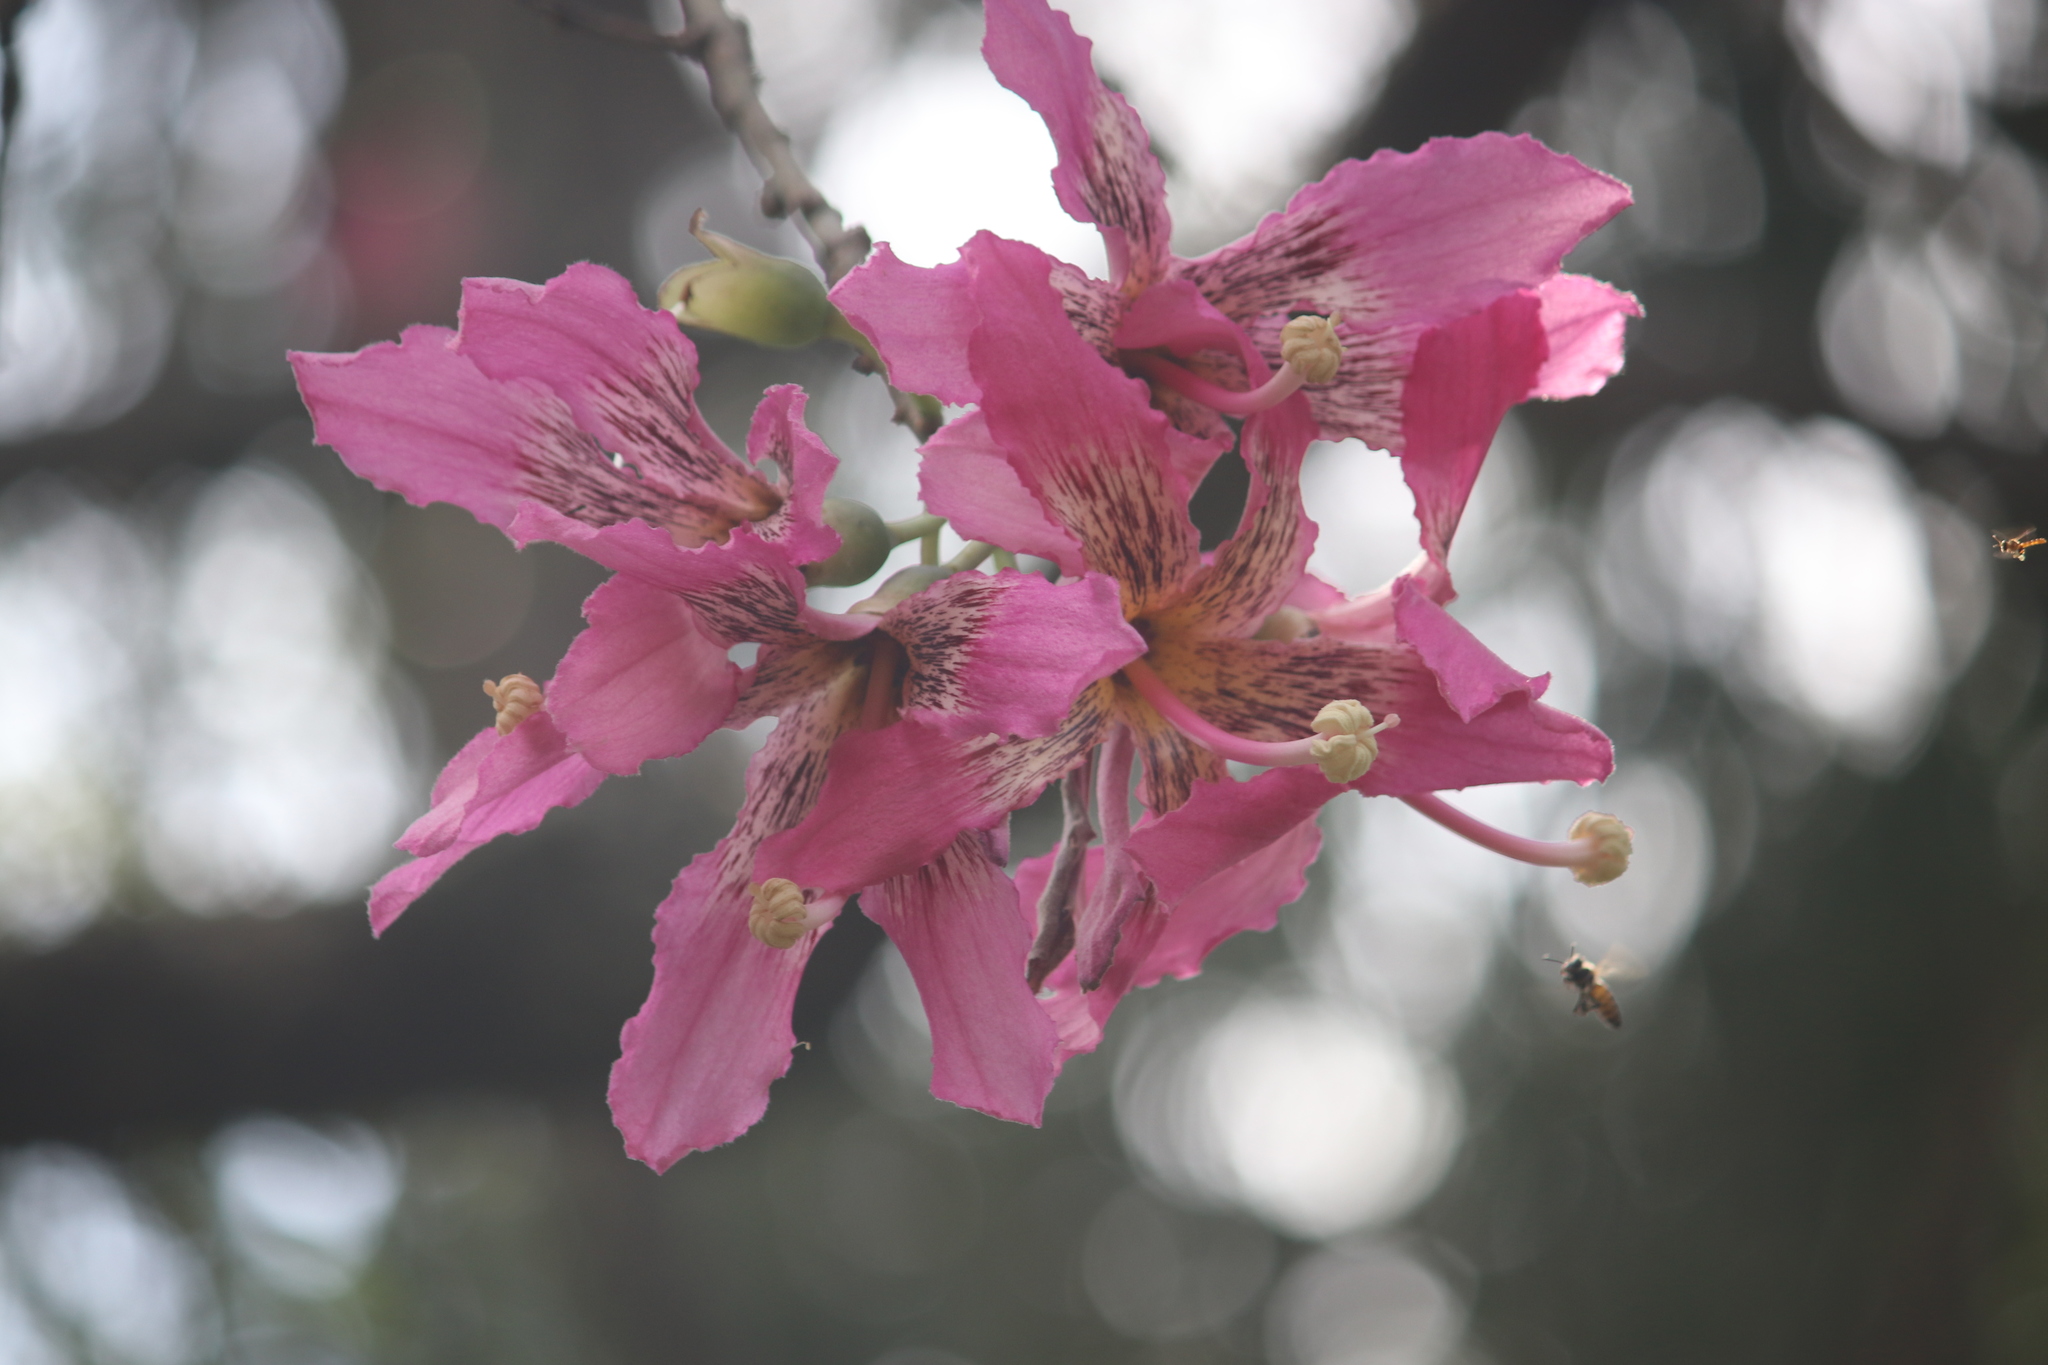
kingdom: Plantae
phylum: Tracheophyta
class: Magnoliopsida
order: Malvales
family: Malvaceae
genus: Ceiba
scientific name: Ceiba speciosa
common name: Silk-floss tree
